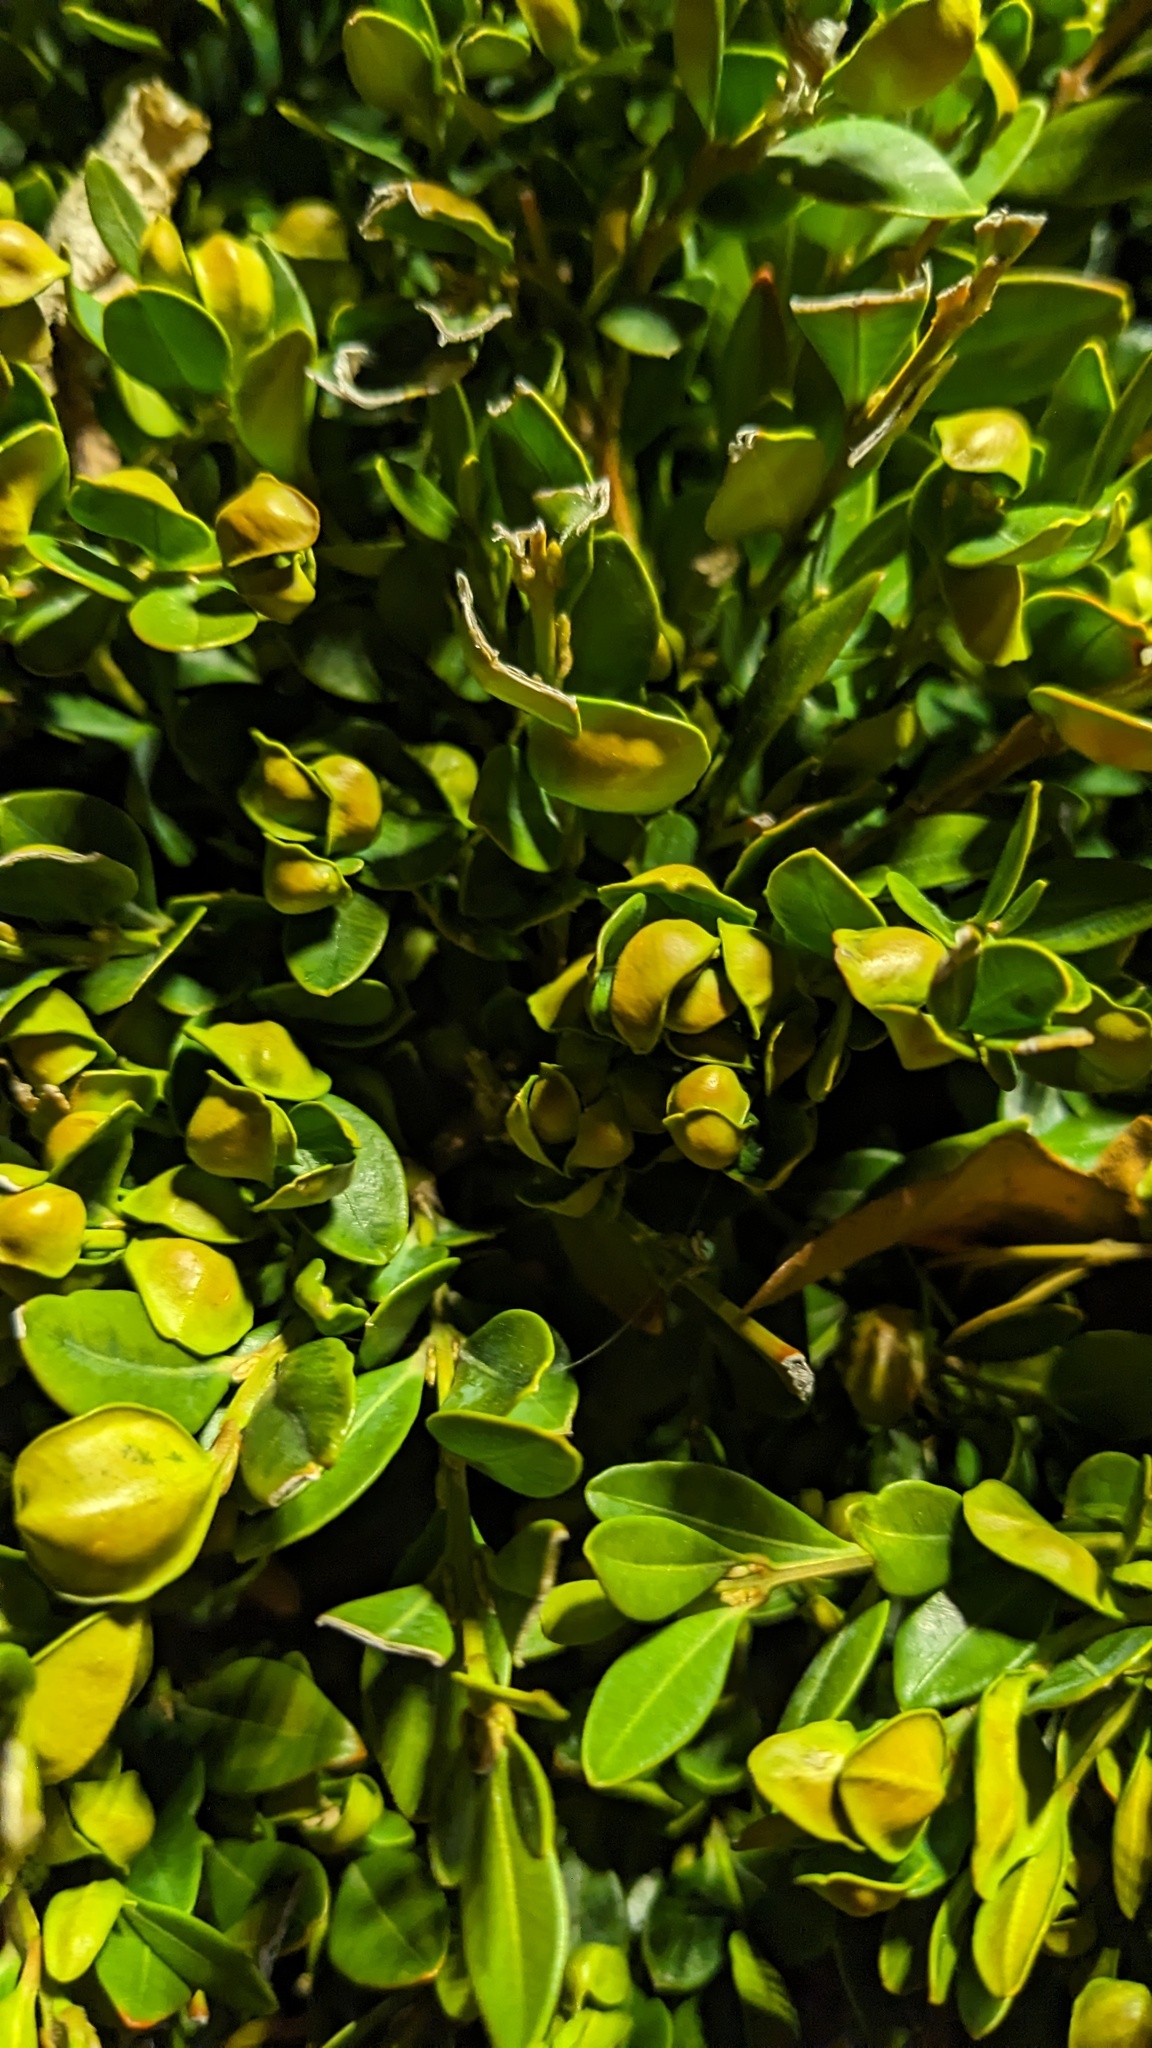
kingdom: Animalia
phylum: Arthropoda
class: Insecta
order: Hemiptera
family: Psyllidae
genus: Psylla
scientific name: Psylla buxi
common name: Boxwood psyllid
